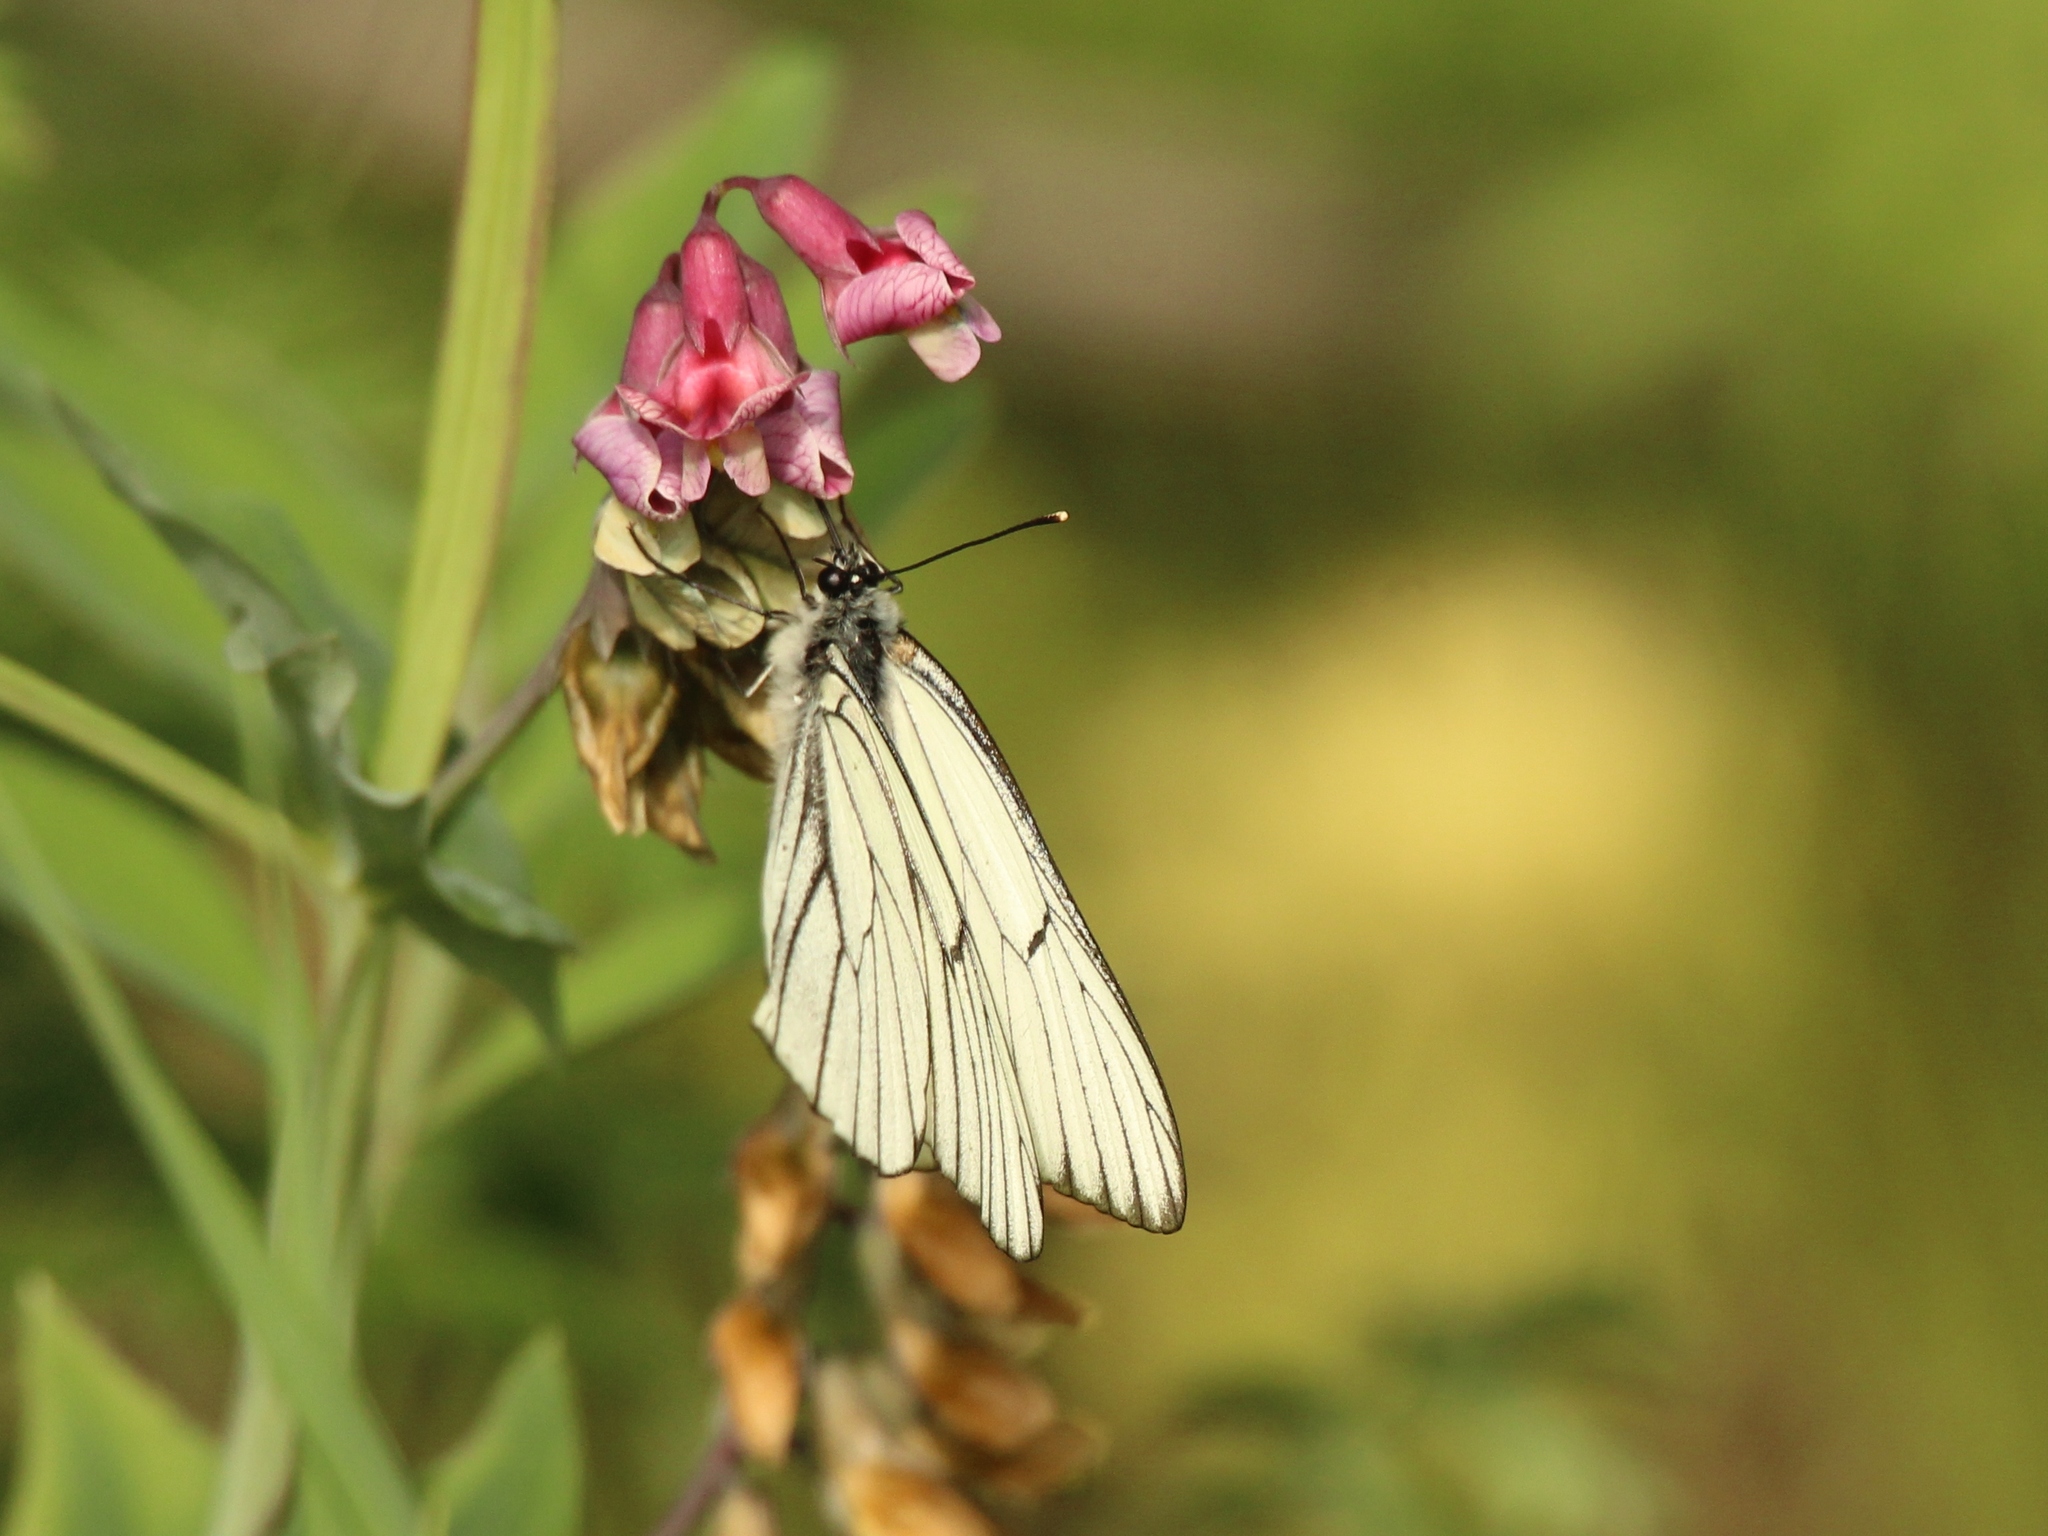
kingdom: Animalia
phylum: Arthropoda
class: Insecta
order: Lepidoptera
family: Pieridae
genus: Aporia
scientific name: Aporia crataegi
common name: Black-veined white
